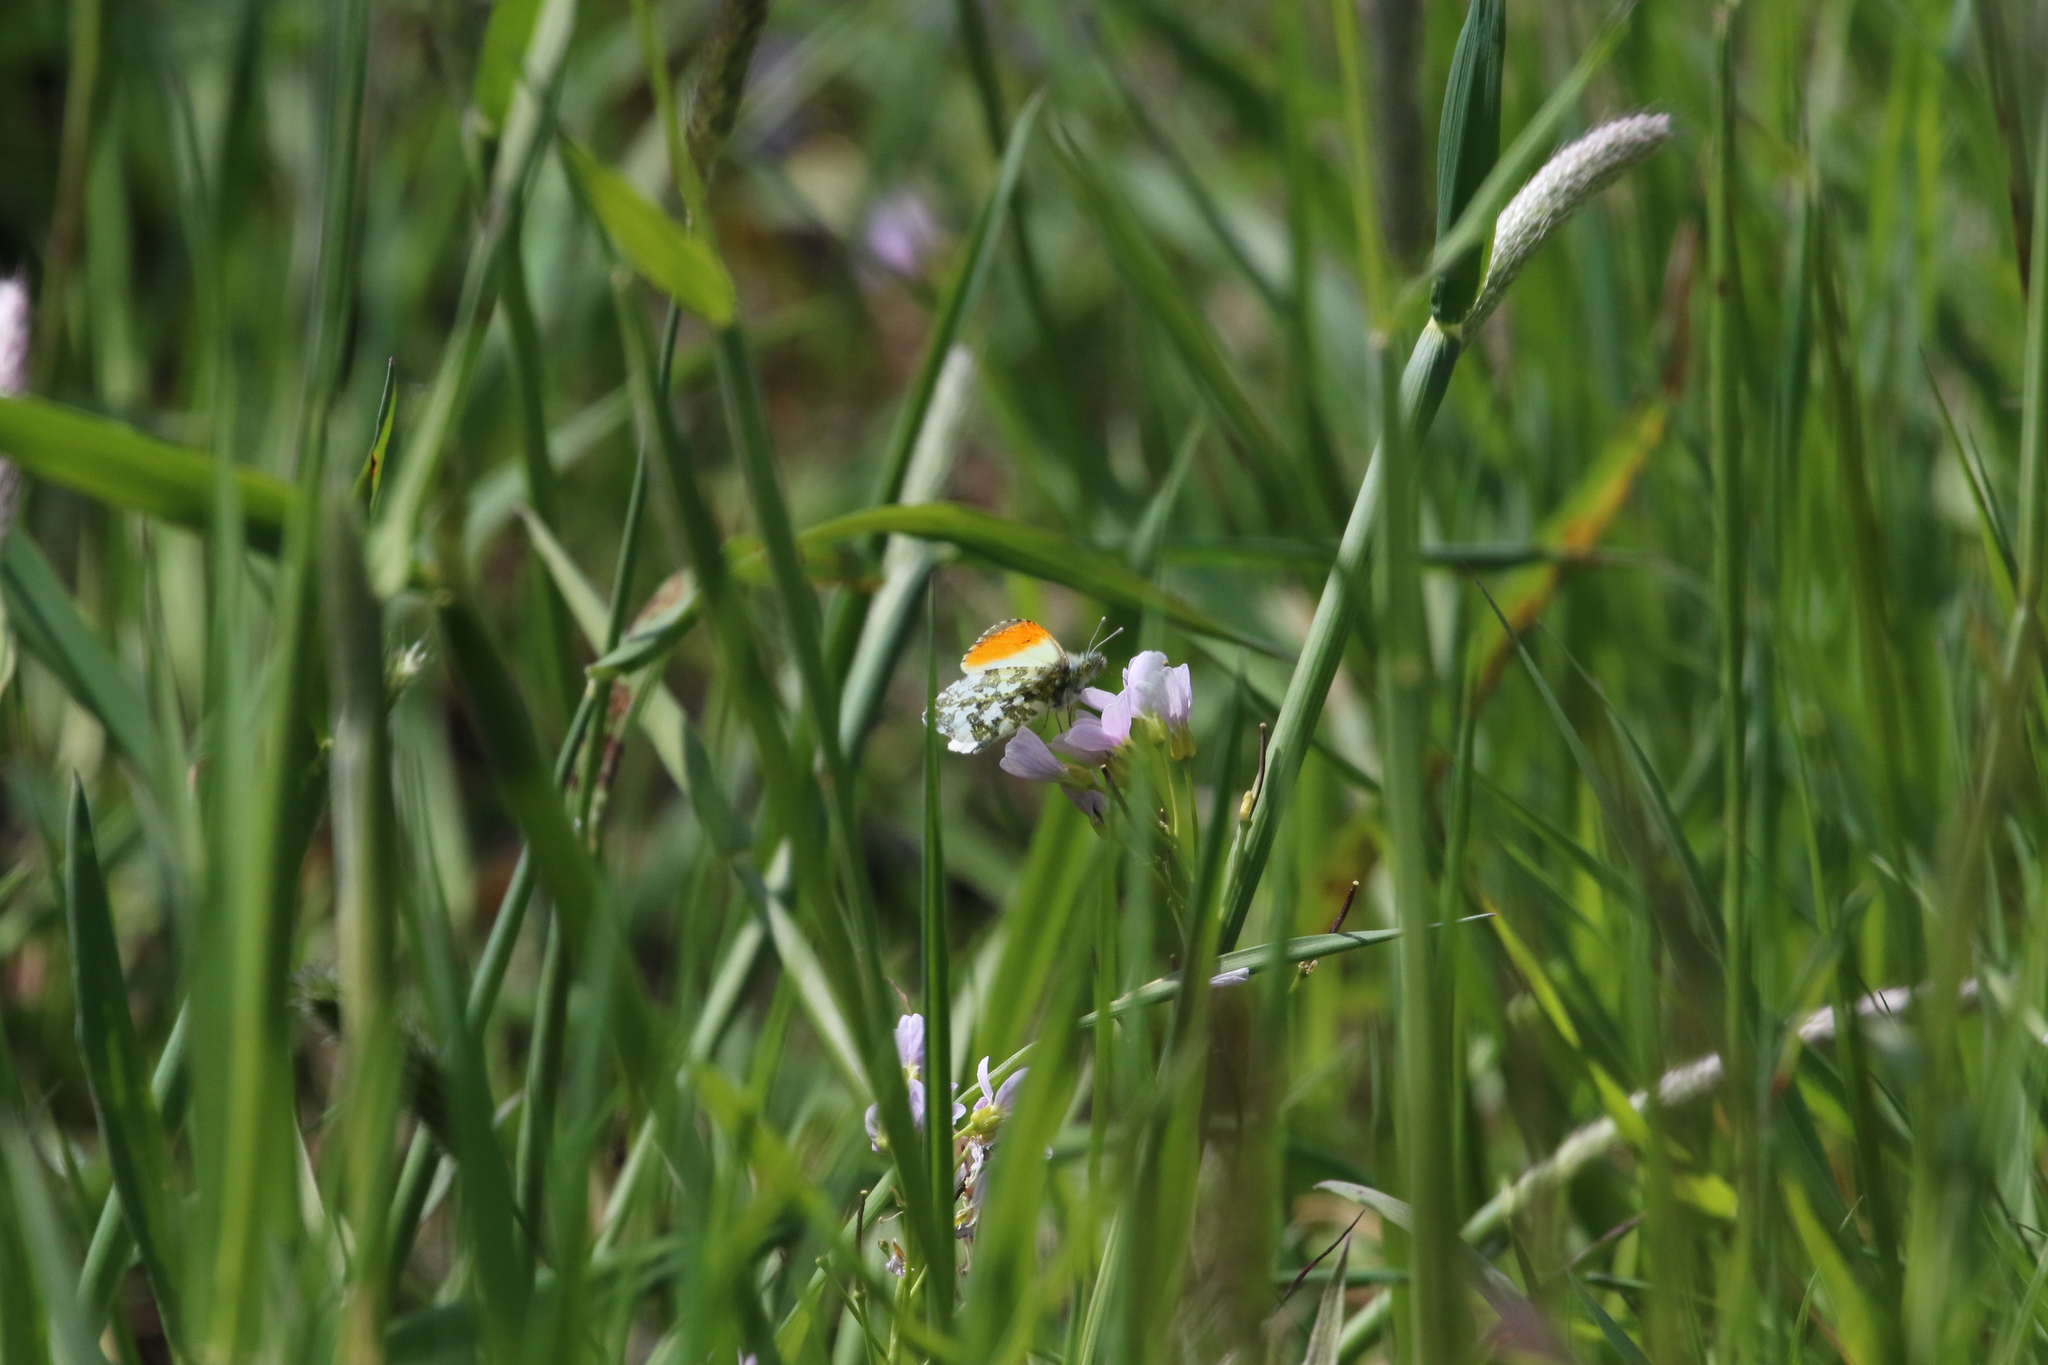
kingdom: Animalia
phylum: Arthropoda
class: Insecta
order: Lepidoptera
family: Pieridae
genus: Anthocharis
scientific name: Anthocharis cardamines
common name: Orange-tip
